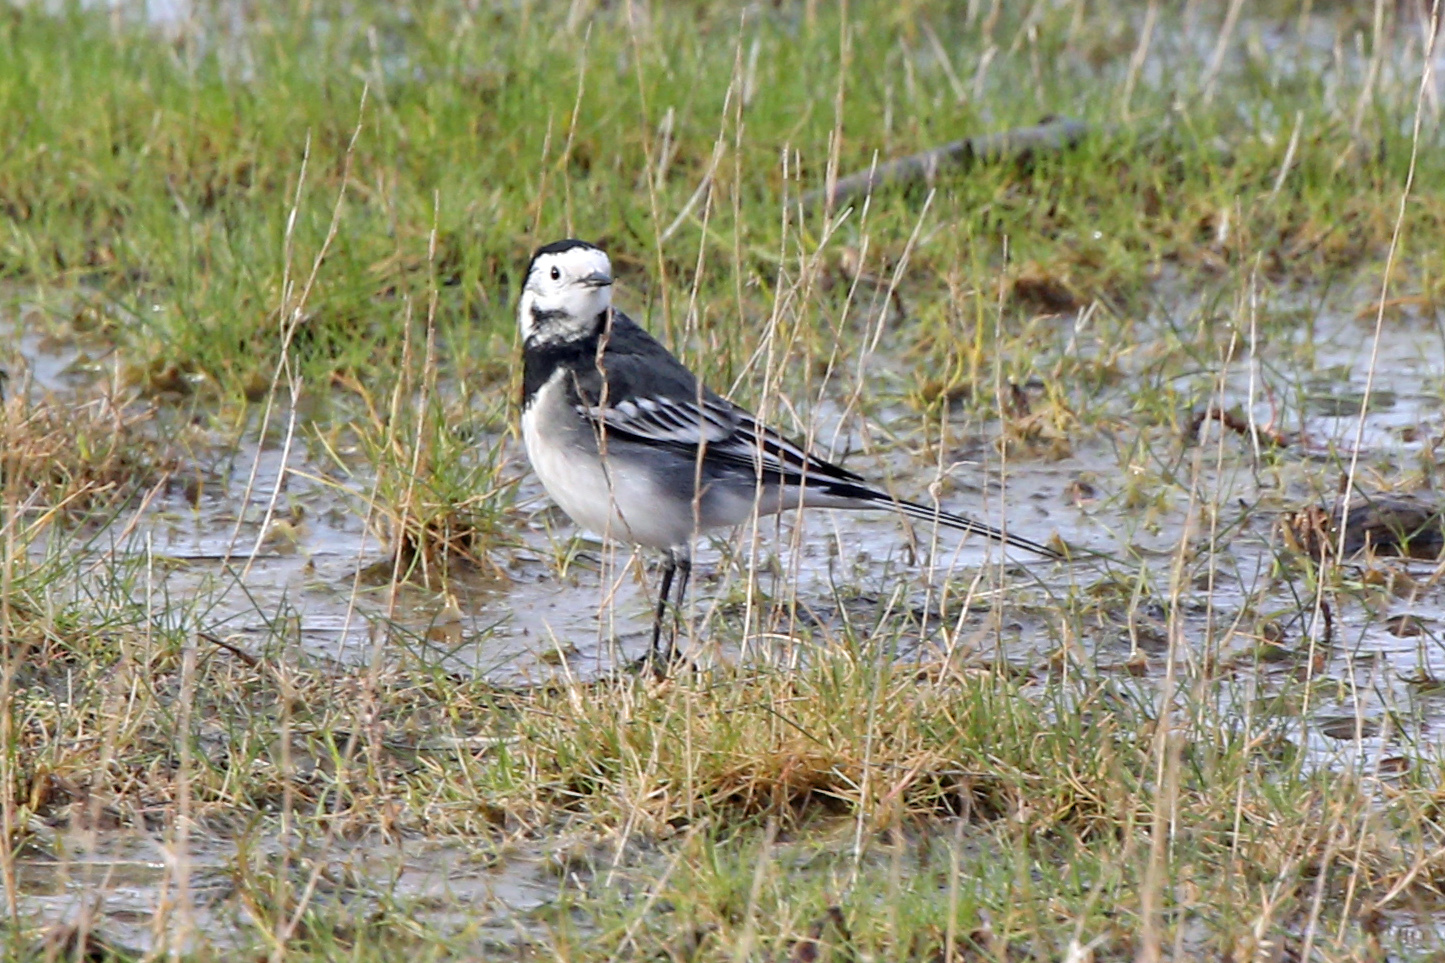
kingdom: Animalia
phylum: Chordata
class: Aves
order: Passeriformes
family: Motacillidae
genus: Motacilla
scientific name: Motacilla alba
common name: White wagtail
